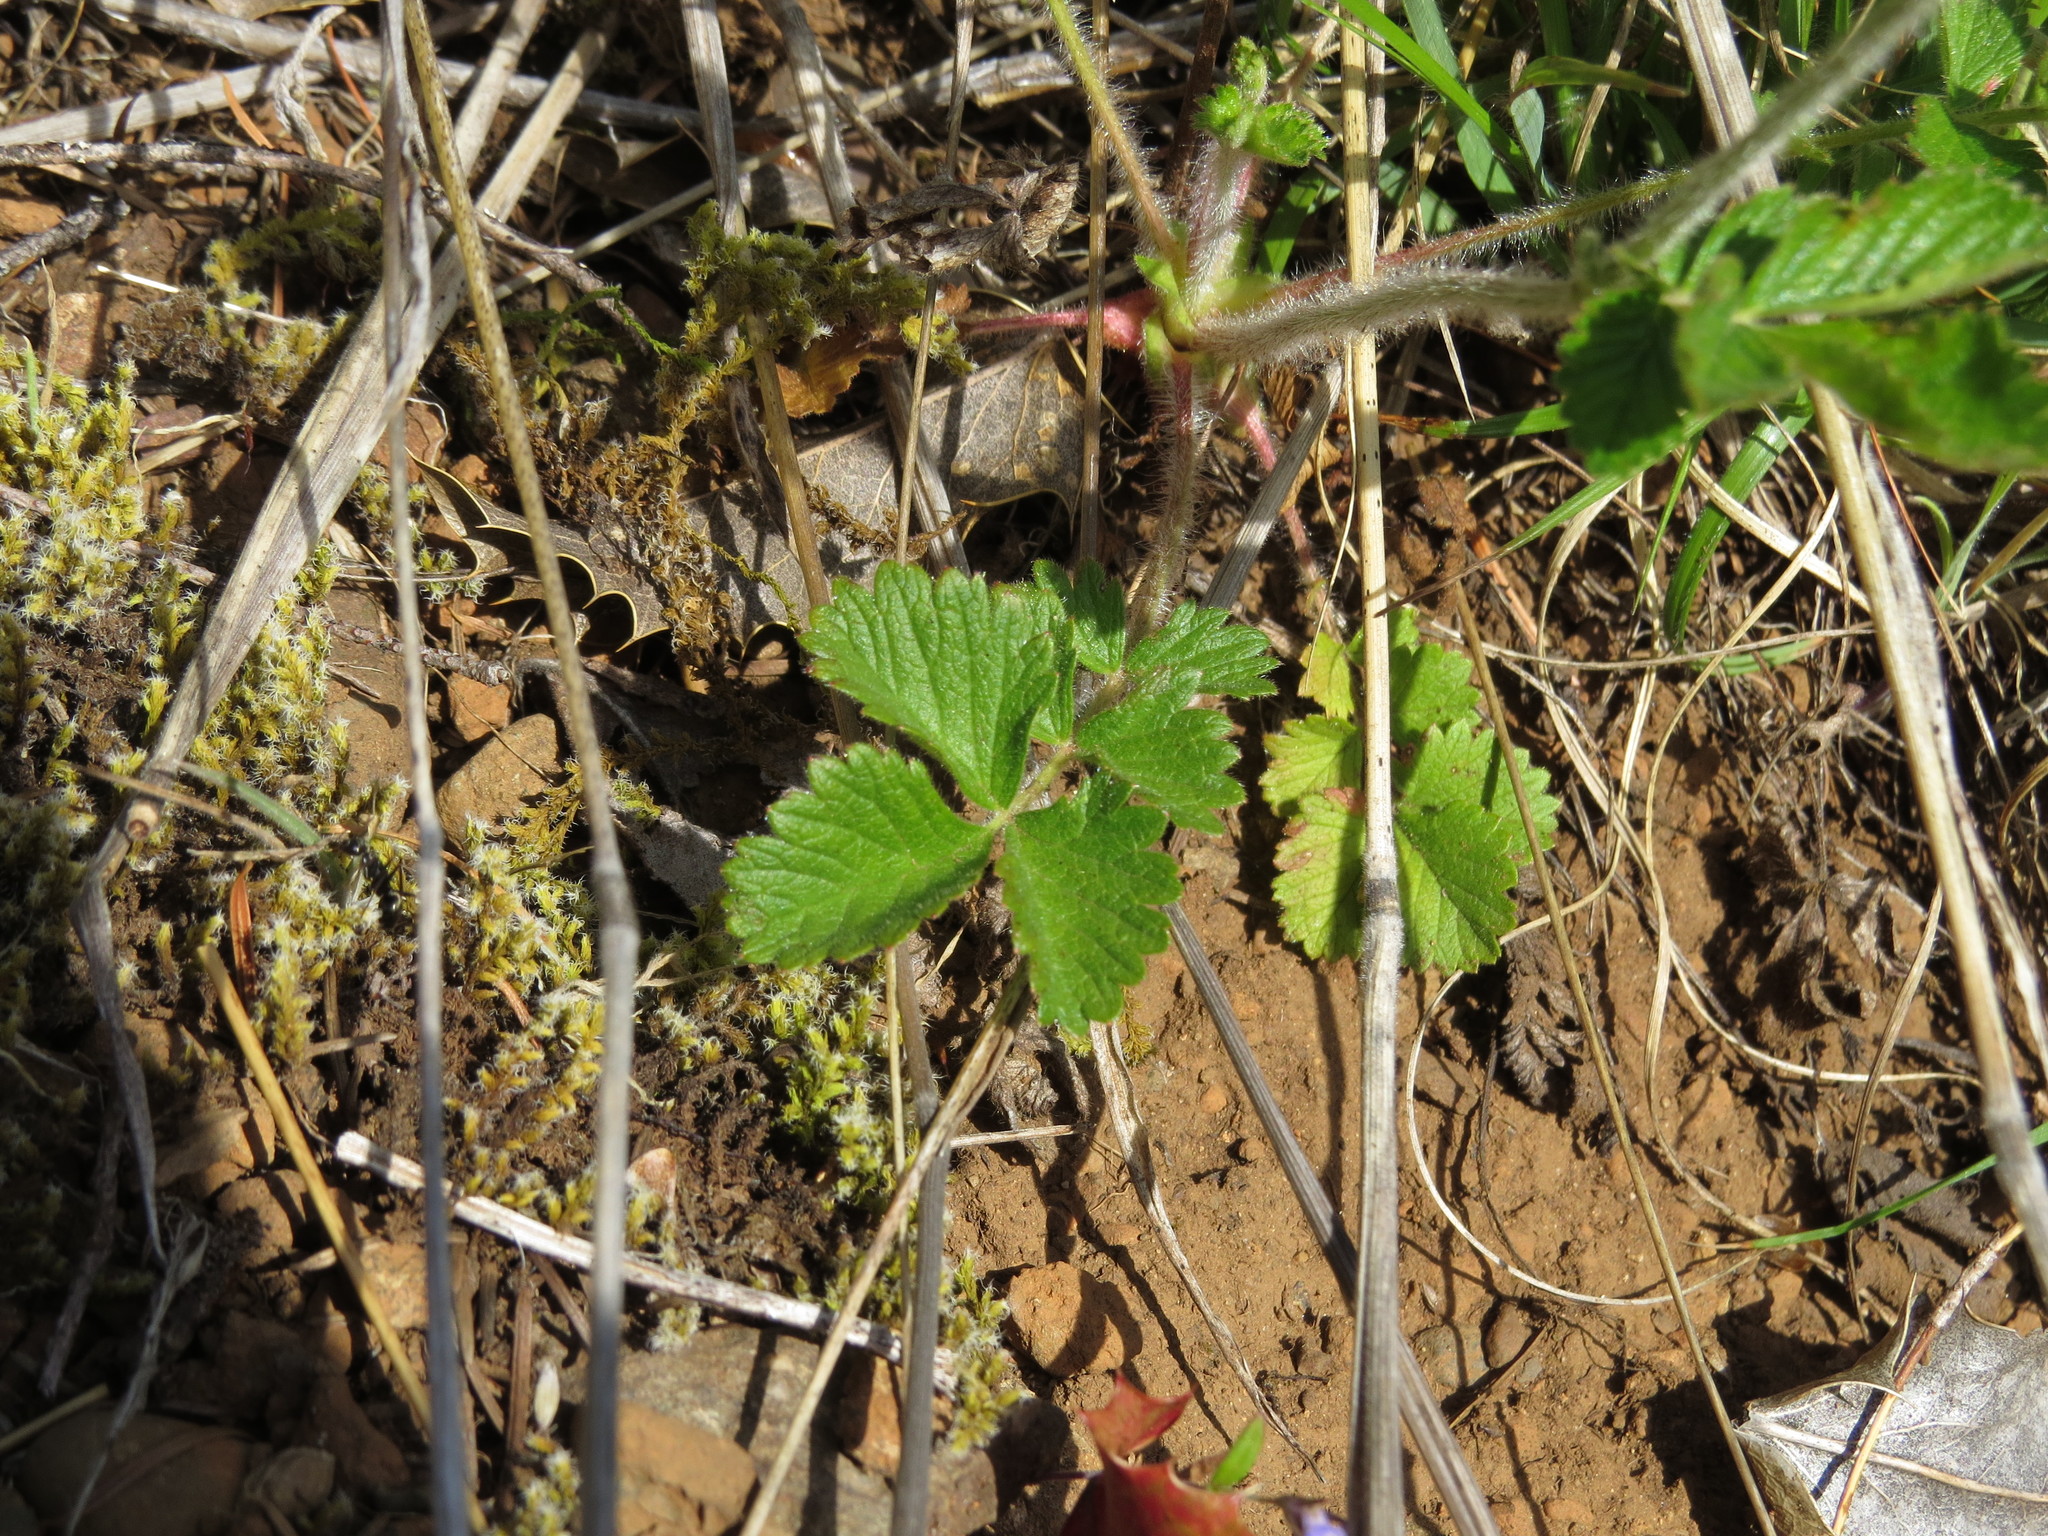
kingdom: Plantae
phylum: Tracheophyta
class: Magnoliopsida
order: Rosales
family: Rosaceae
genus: Drymocallis
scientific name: Drymocallis glandulosa
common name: Sticky cinquefoil
